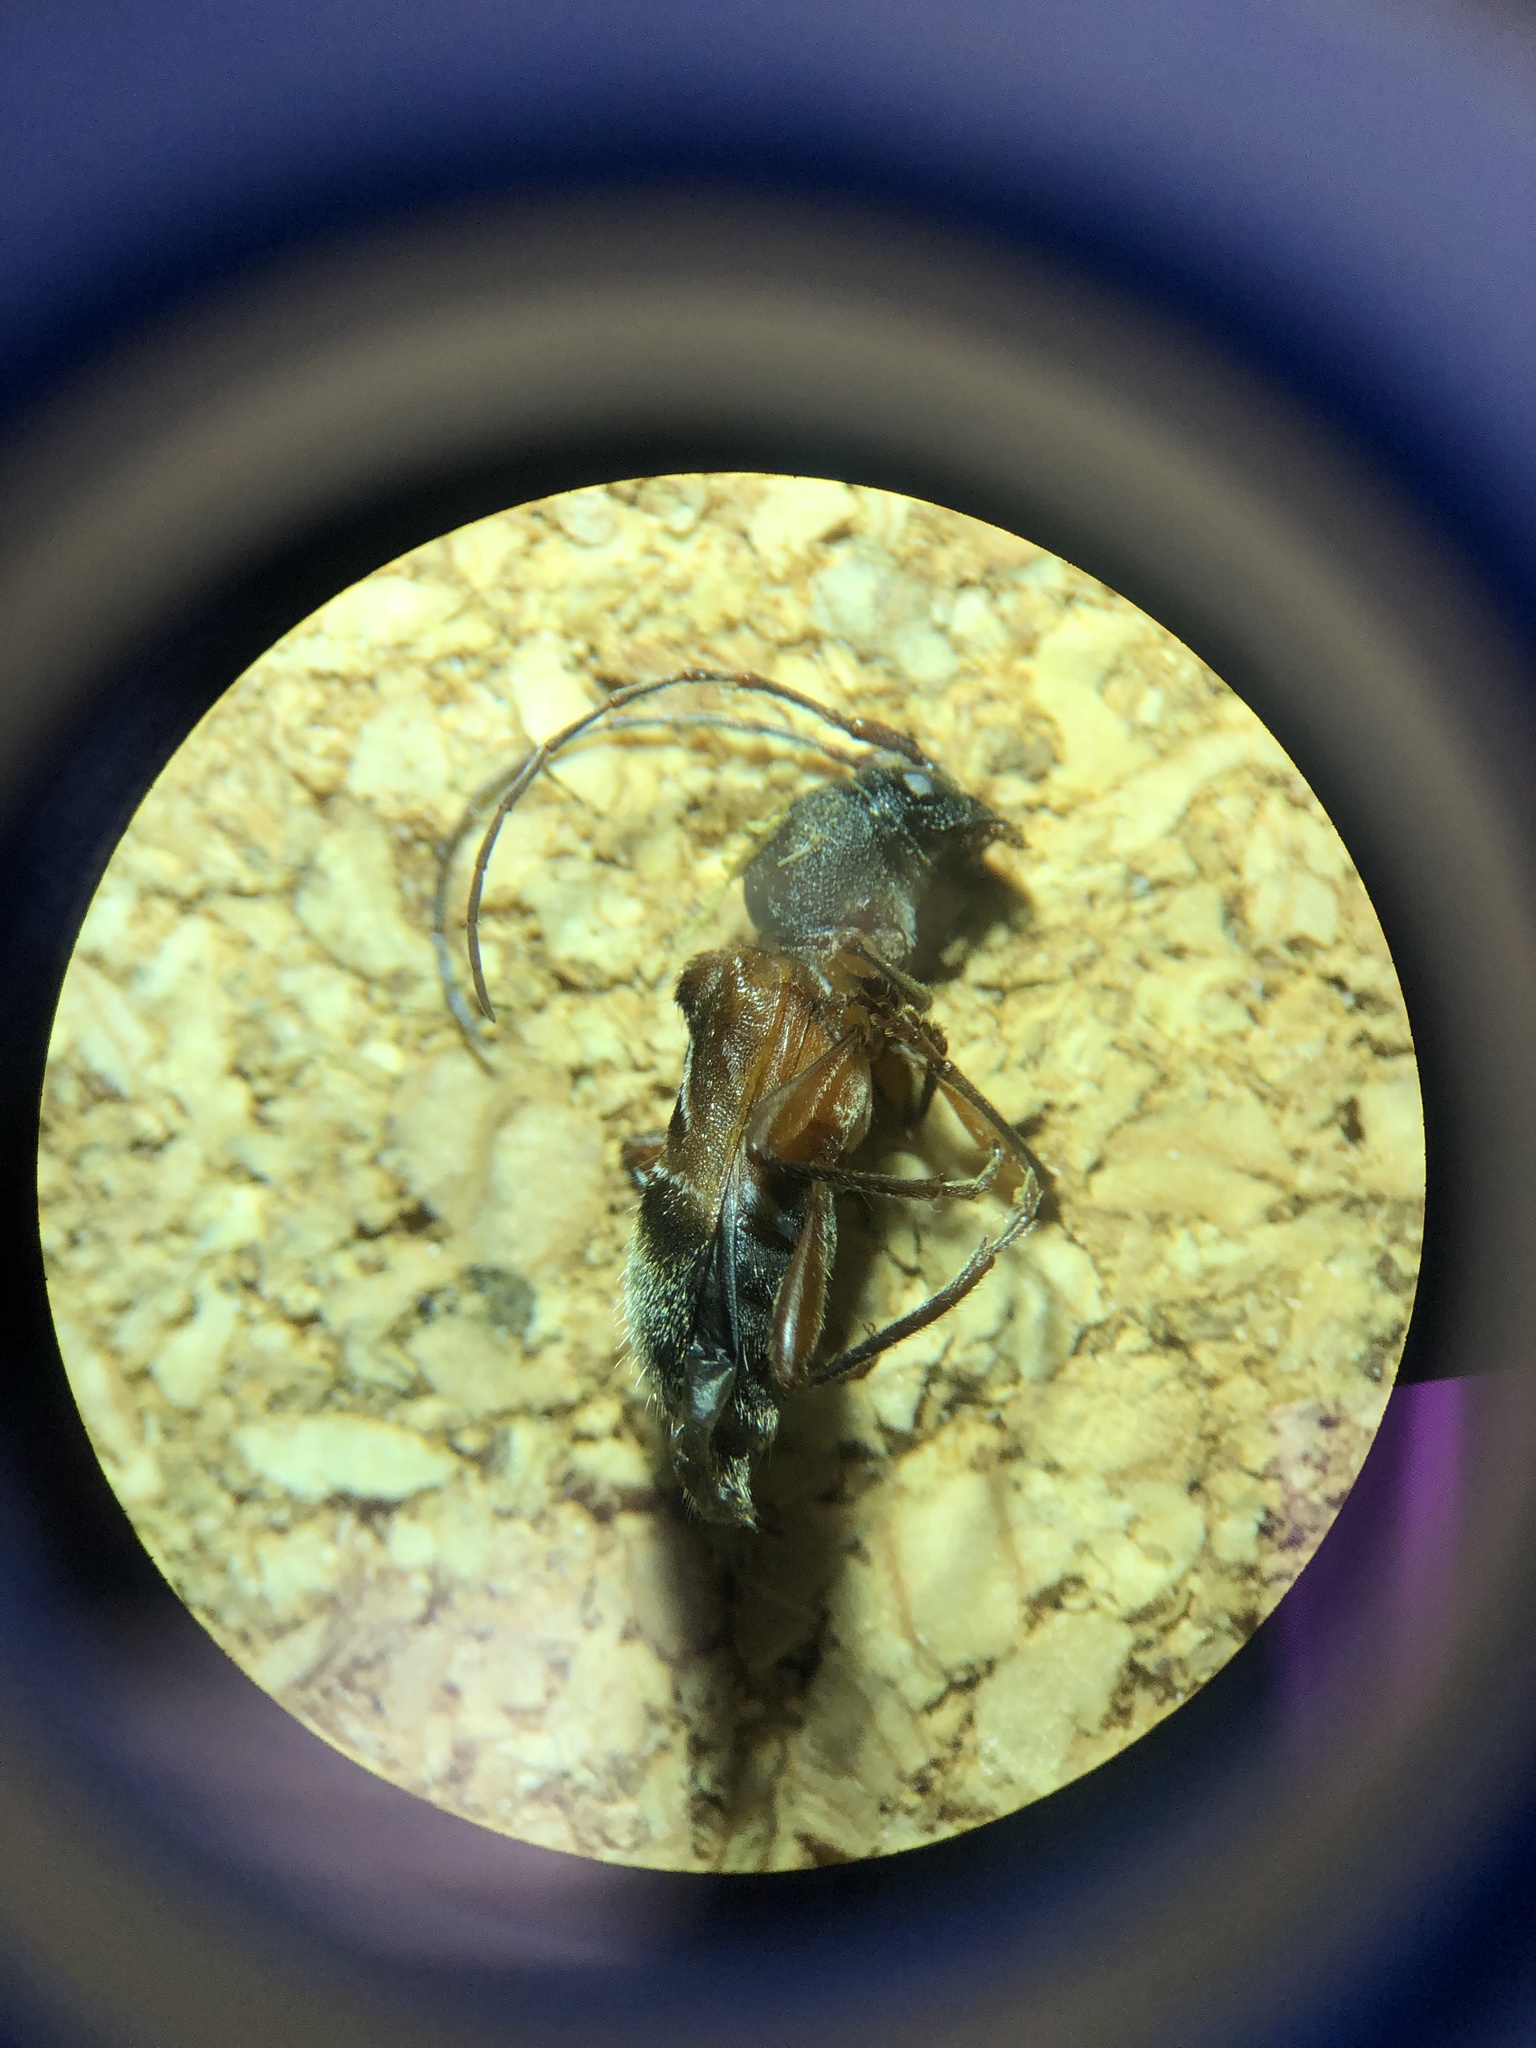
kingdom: Animalia
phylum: Arthropoda
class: Insecta
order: Coleoptera
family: Cerambycidae
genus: Cyrtophorus
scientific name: Cyrtophorus verrucosus
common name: Ant-like longhorn beetle
